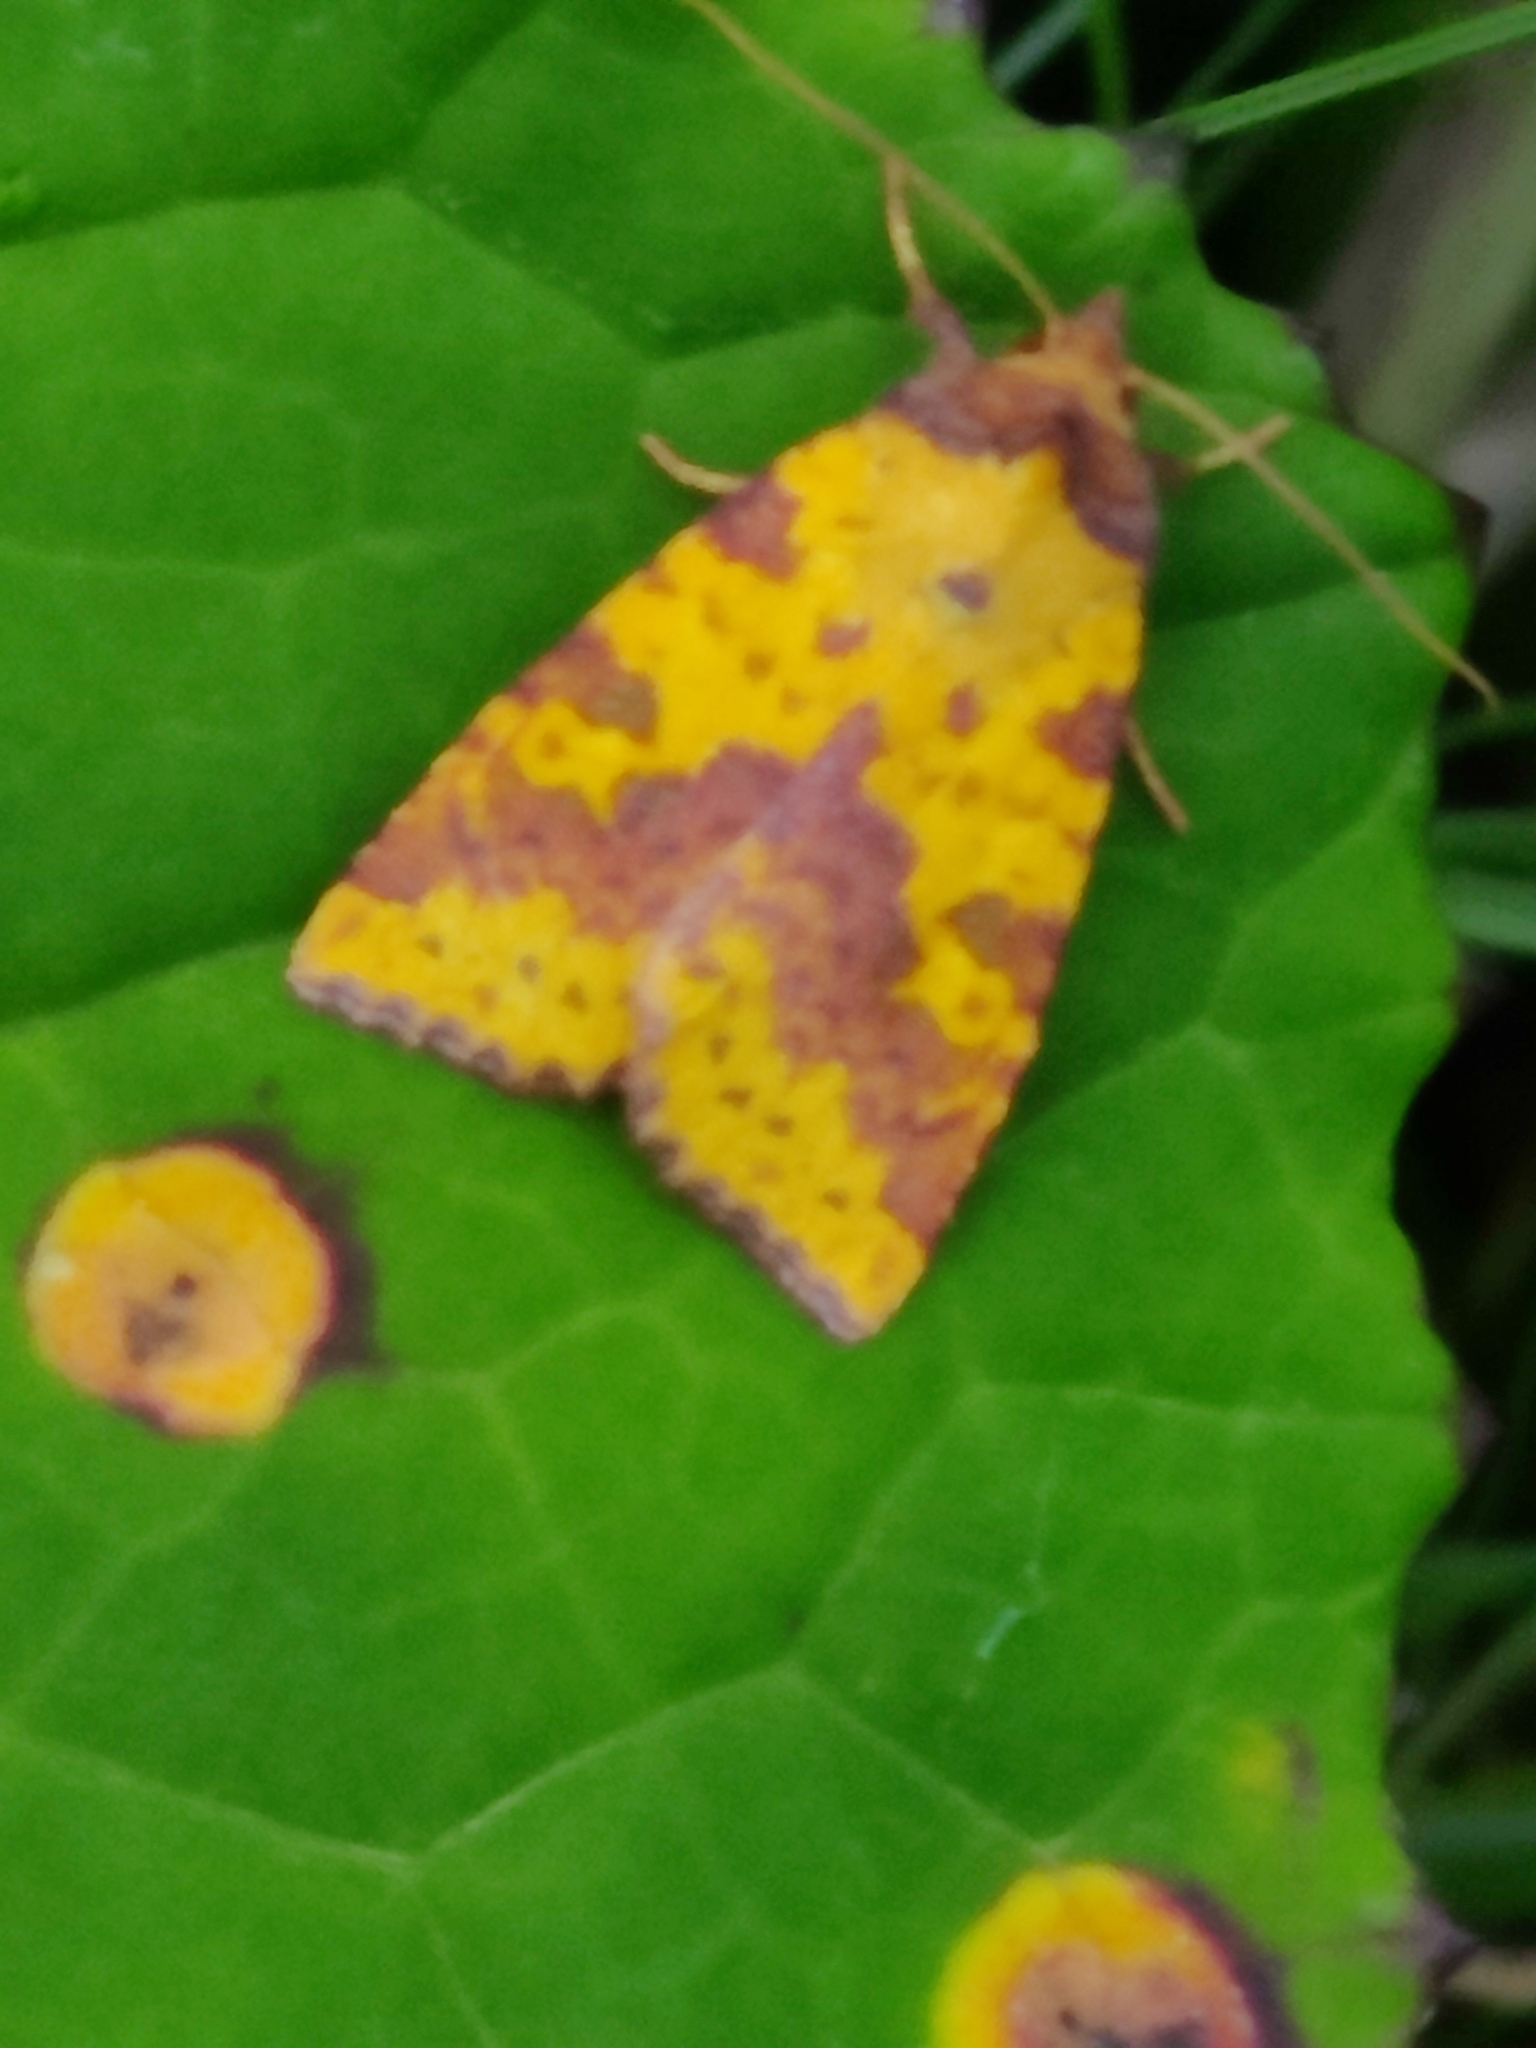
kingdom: Animalia
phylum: Arthropoda
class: Insecta
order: Lepidoptera
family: Noctuidae
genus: Xanthia
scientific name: Xanthia togata
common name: Pink-barred sallow
